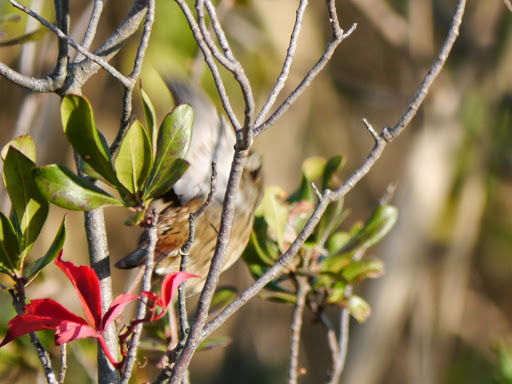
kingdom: Animalia
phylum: Chordata
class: Aves
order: Passeriformes
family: Passerellidae
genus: Melospiza
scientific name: Melospiza georgiana
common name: Swamp sparrow
